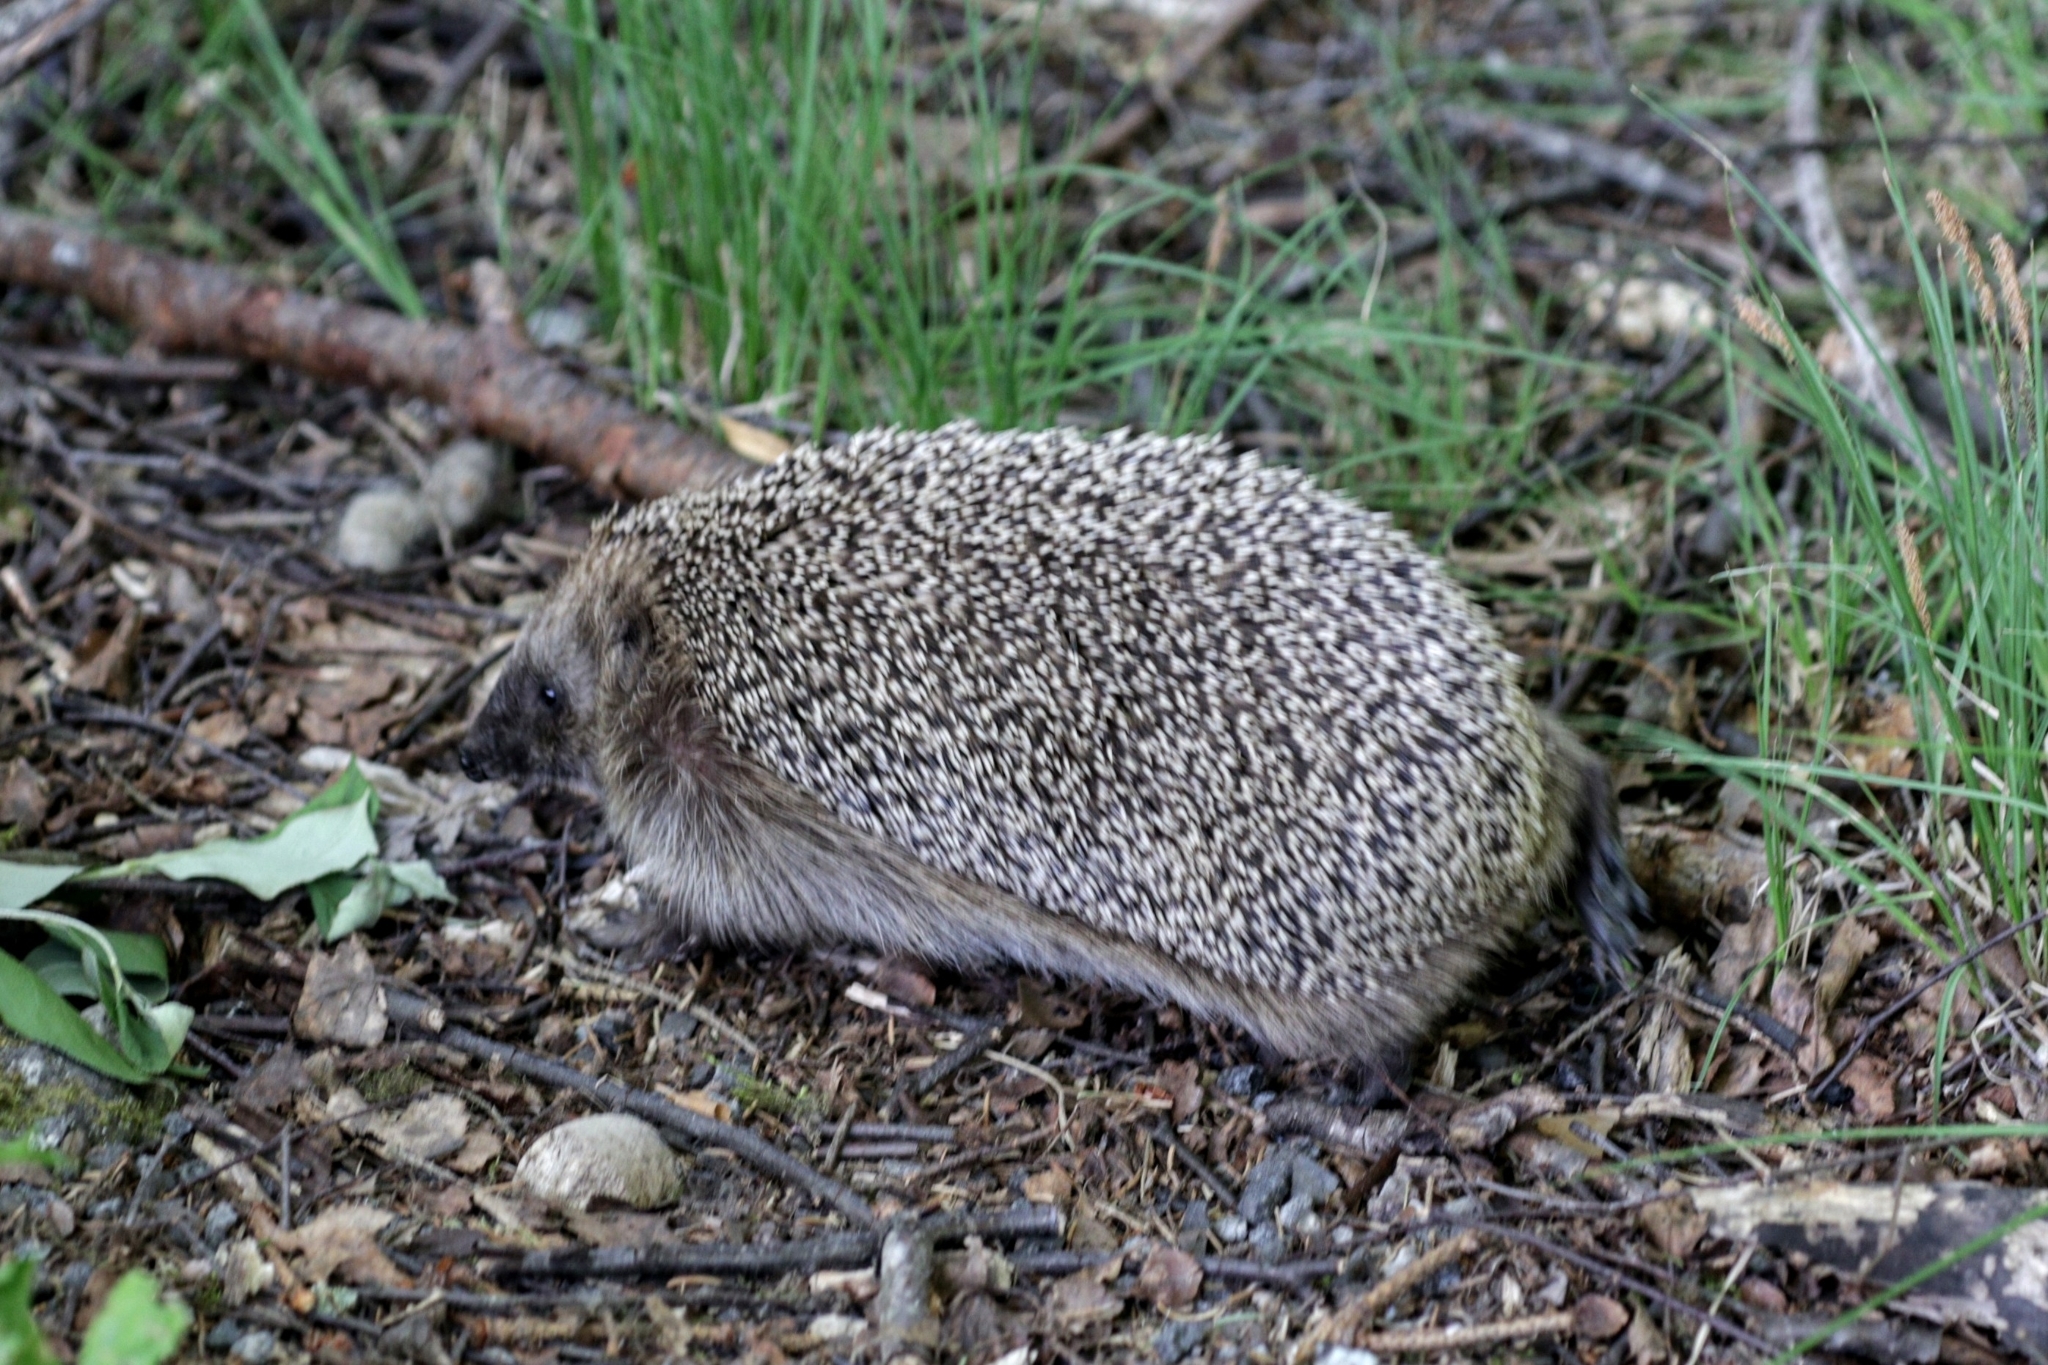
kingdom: Animalia
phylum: Chordata
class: Mammalia
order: Erinaceomorpha
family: Erinaceidae
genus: Erinaceus
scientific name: Erinaceus europaeus
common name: West european hedgehog
